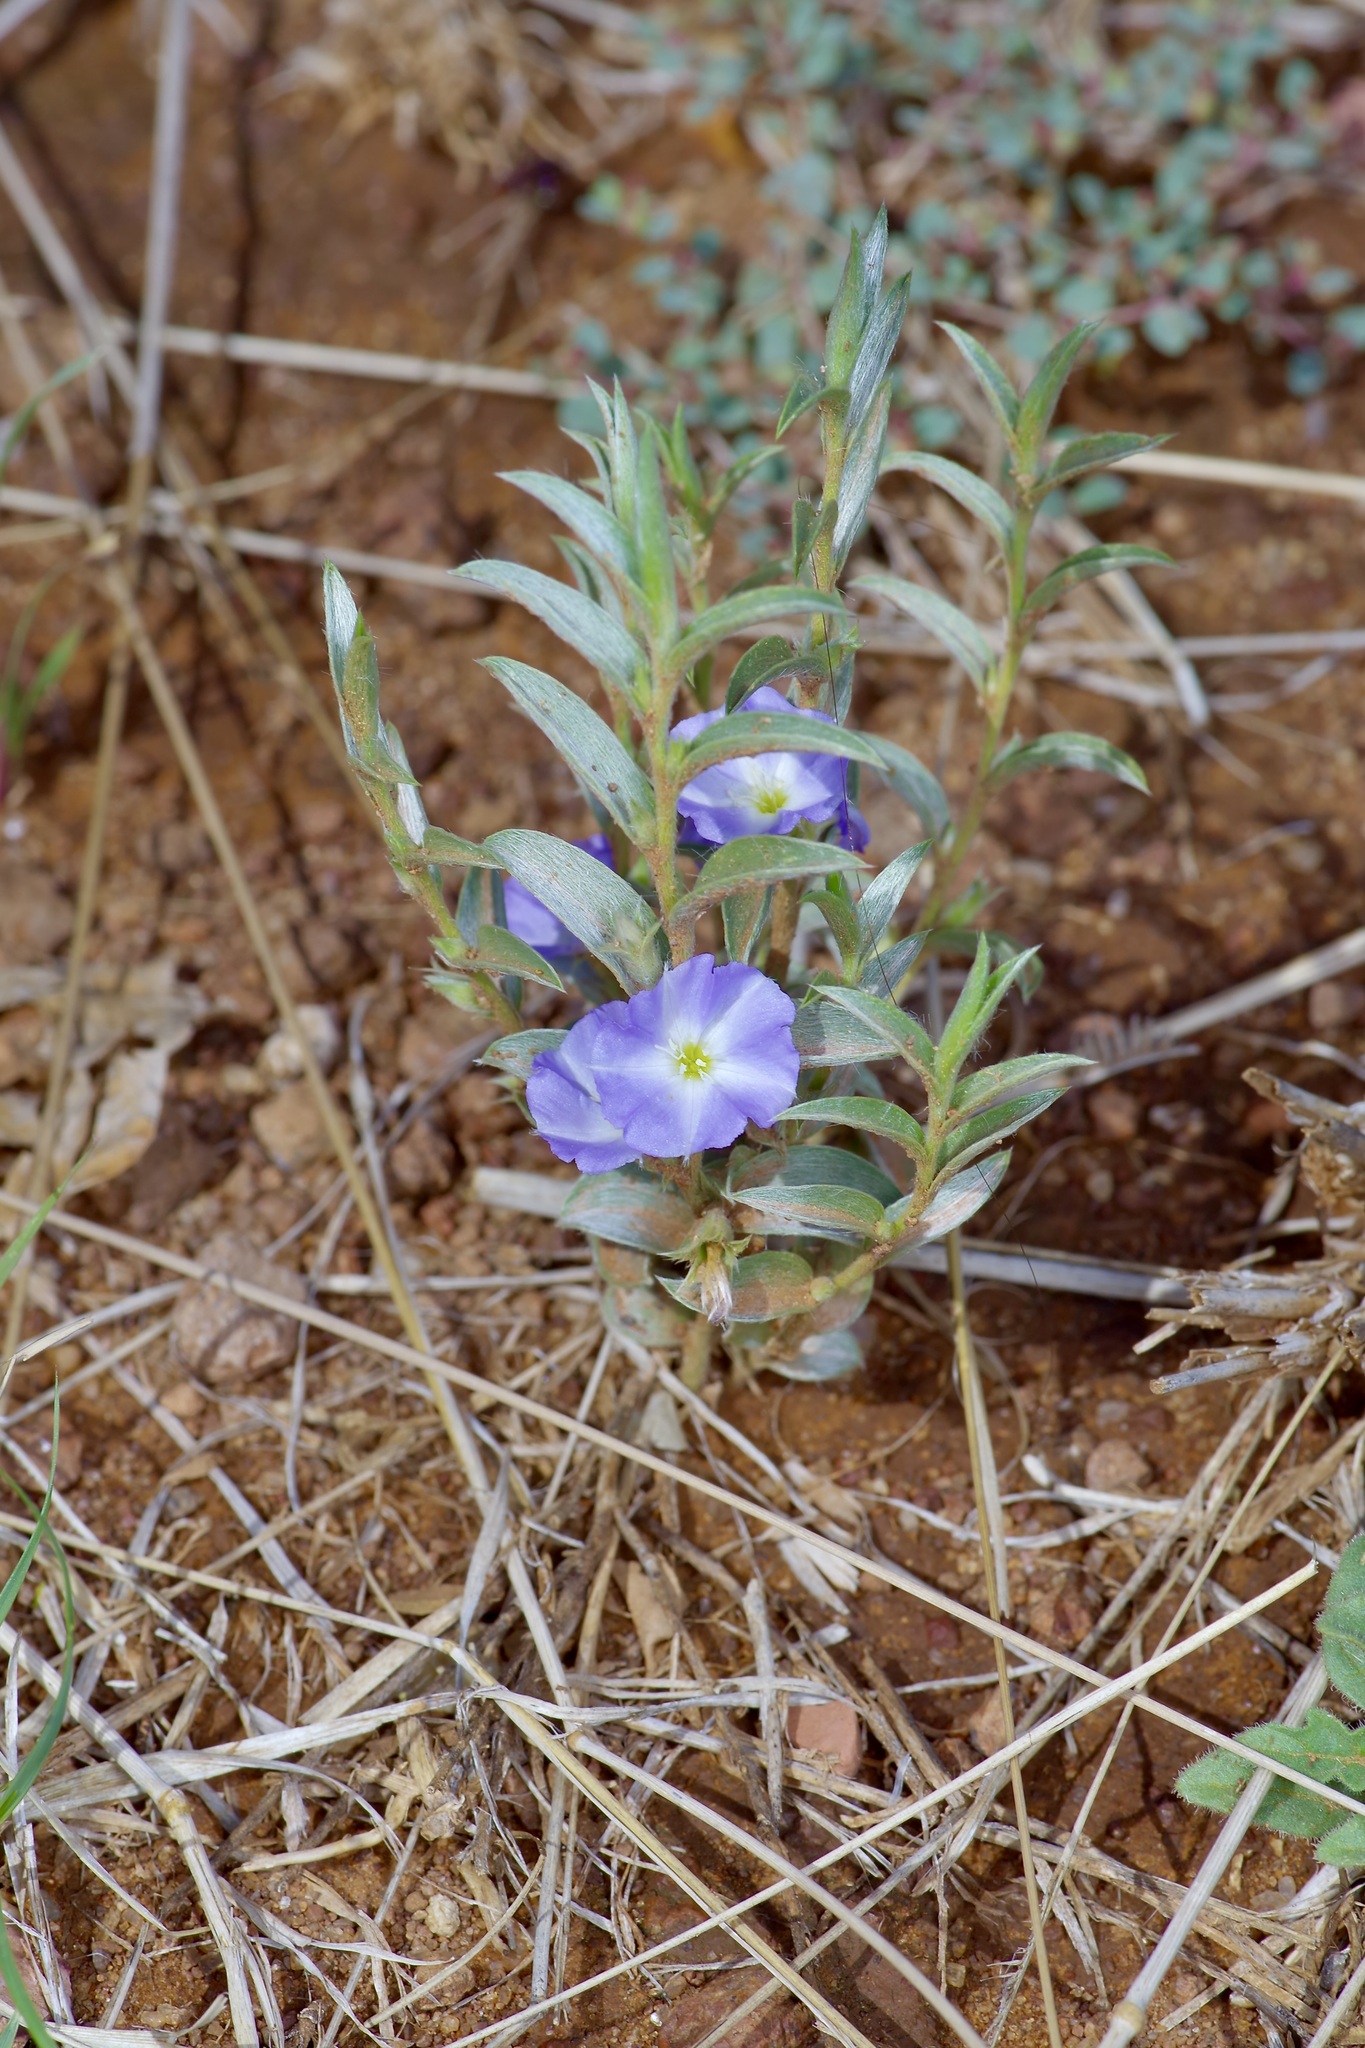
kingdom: Plantae
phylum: Tracheophyta
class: Magnoliopsida
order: Solanales
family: Convolvulaceae
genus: Evolvulus
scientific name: Evolvulus nuttallianus
